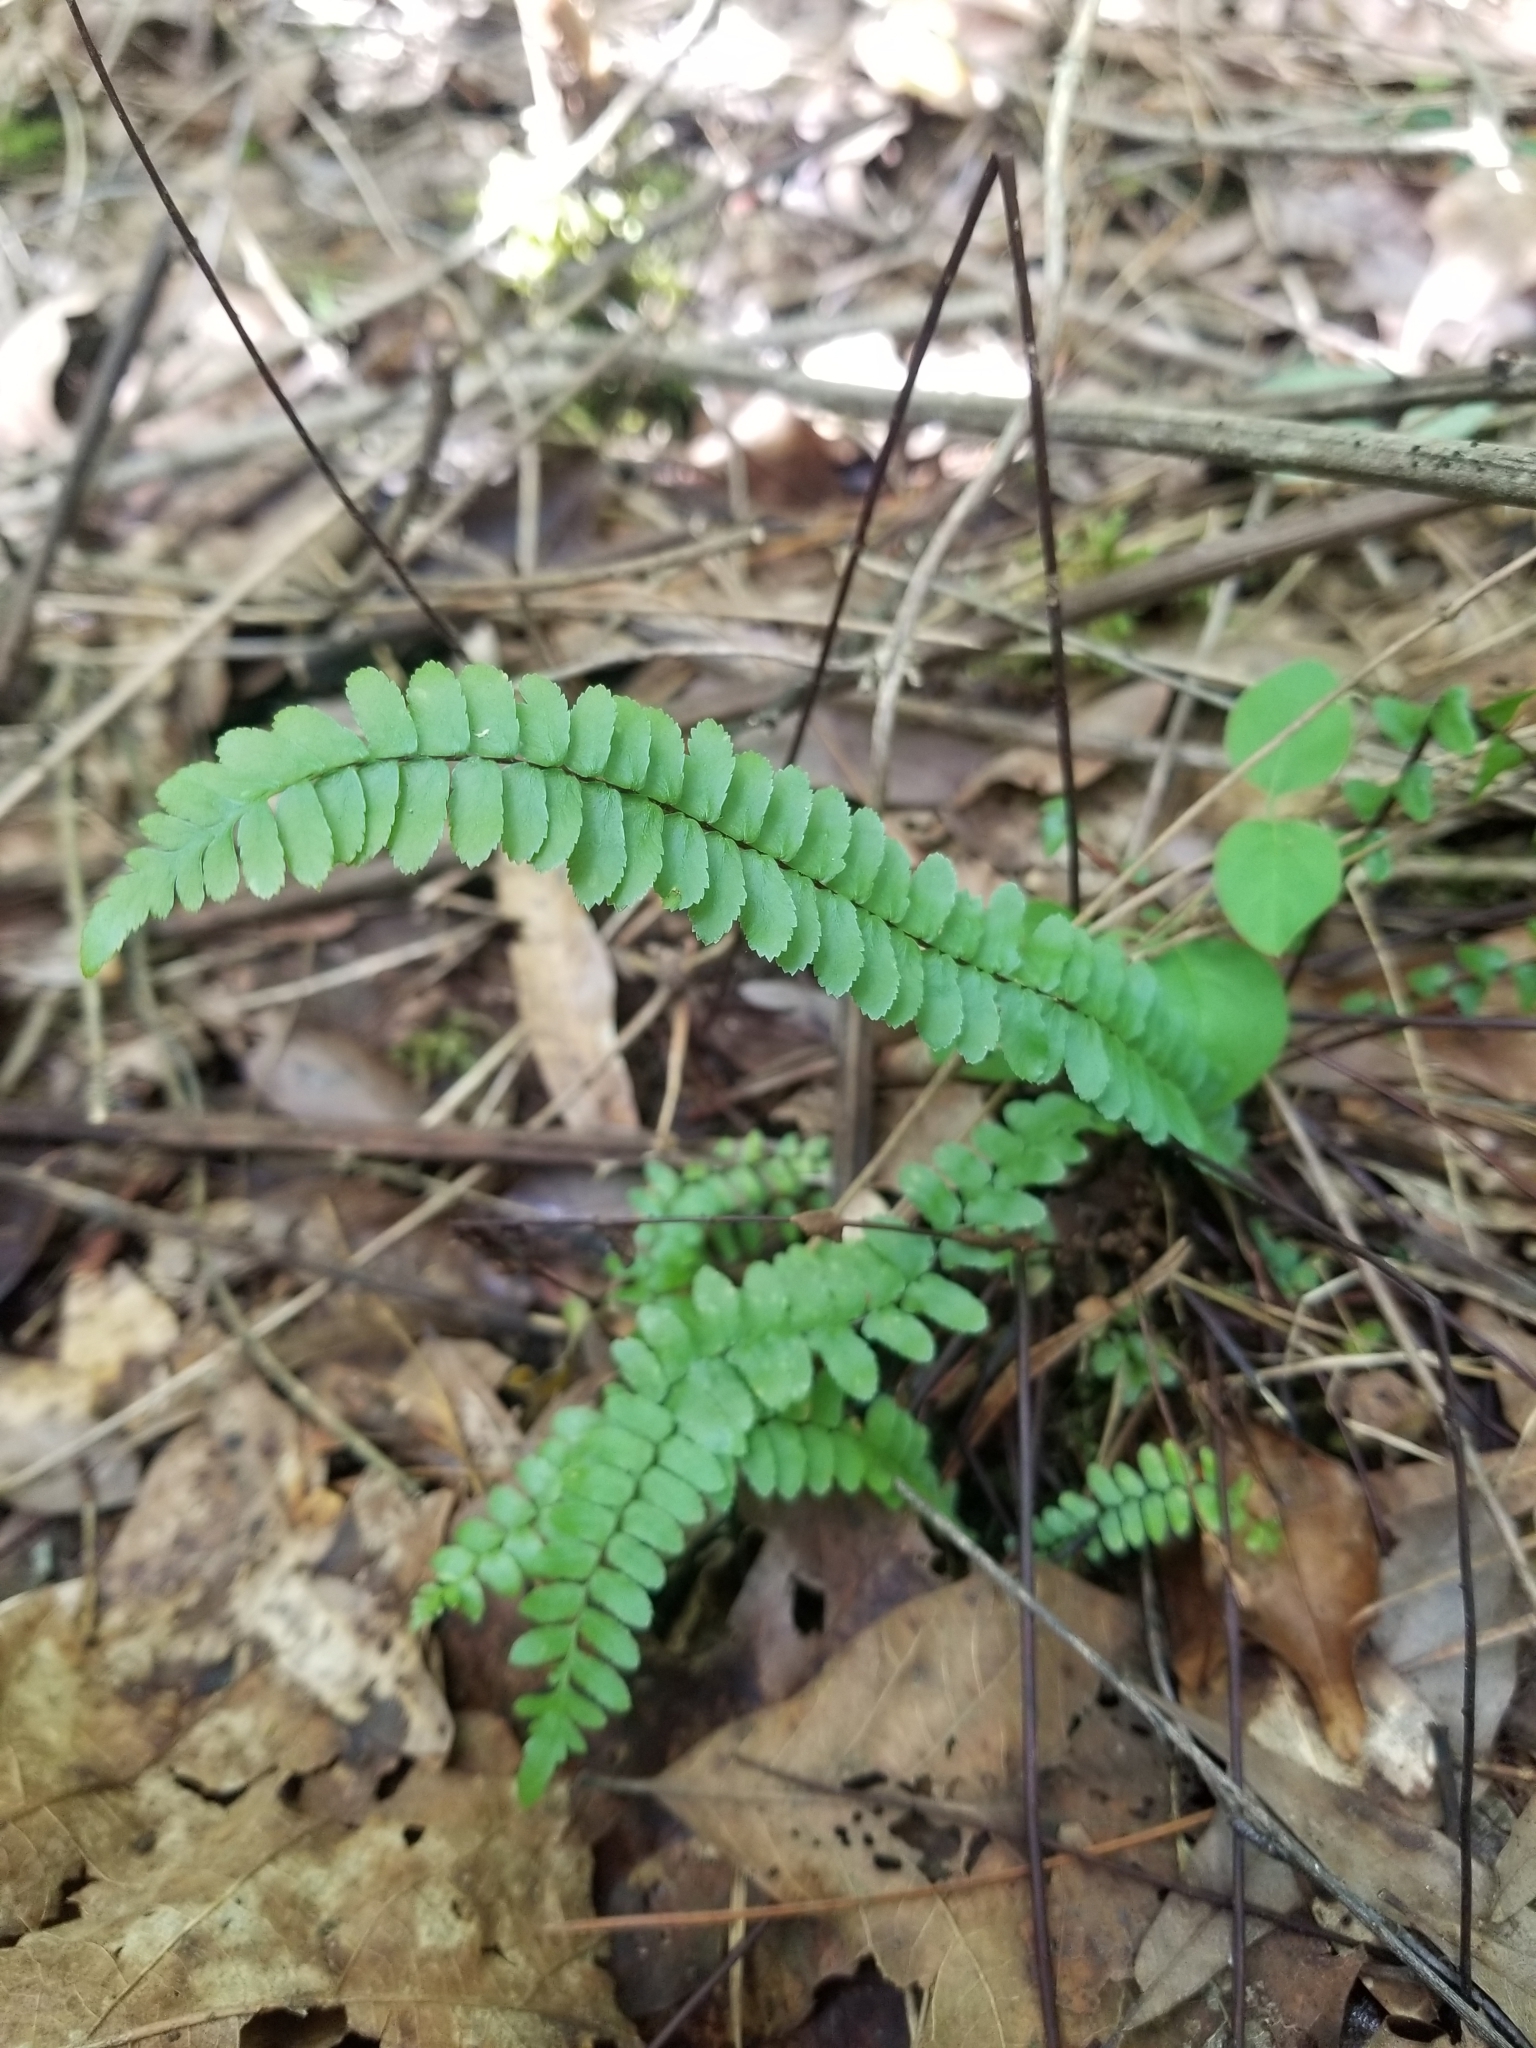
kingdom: Plantae
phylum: Tracheophyta
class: Polypodiopsida
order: Polypodiales
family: Aspleniaceae
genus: Asplenium
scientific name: Asplenium platyneuron
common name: Ebony spleenwort
